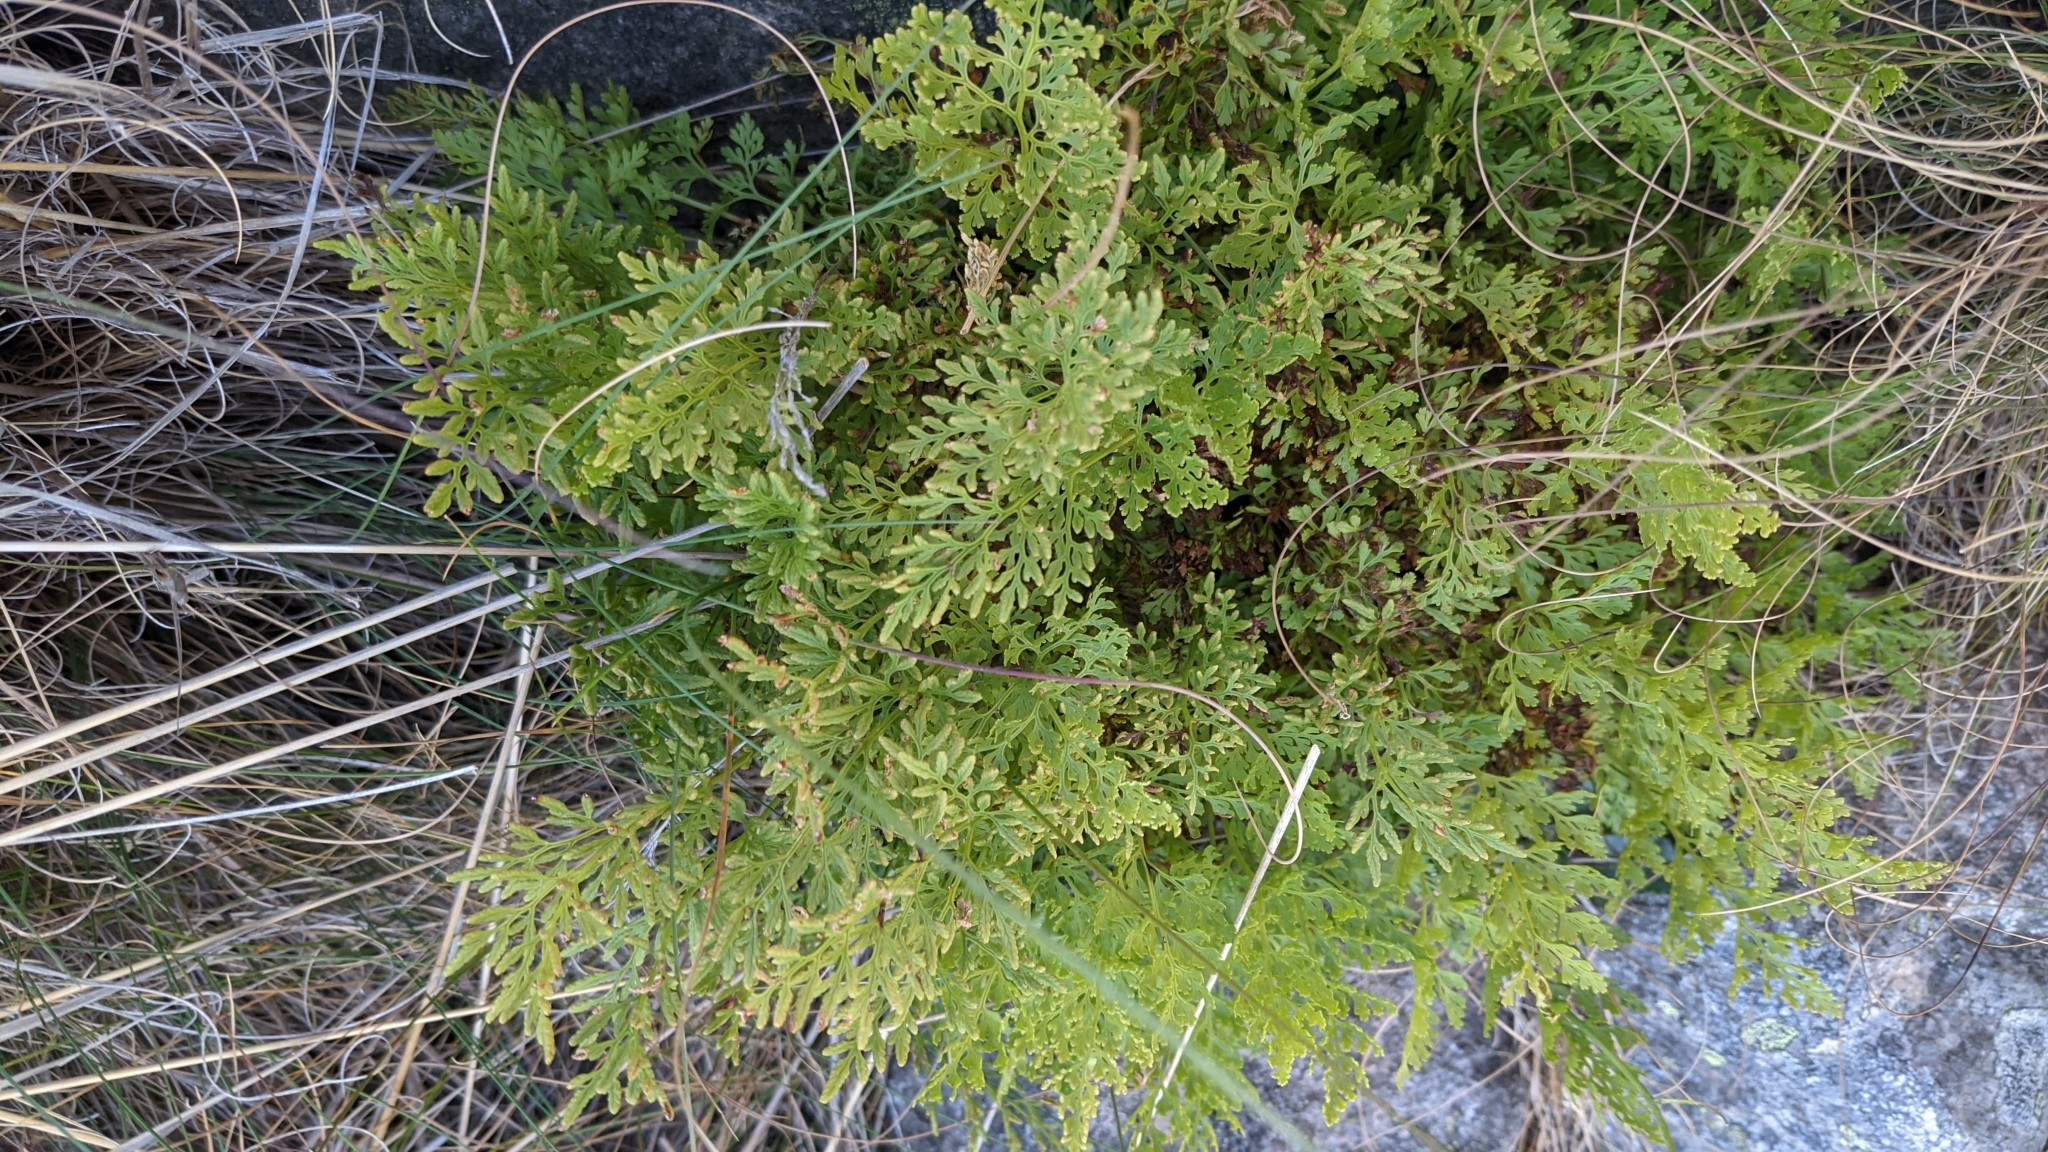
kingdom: Plantae
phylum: Tracheophyta
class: Polypodiopsida
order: Polypodiales
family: Pteridaceae
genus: Cryptogramma
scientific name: Cryptogramma crispa
